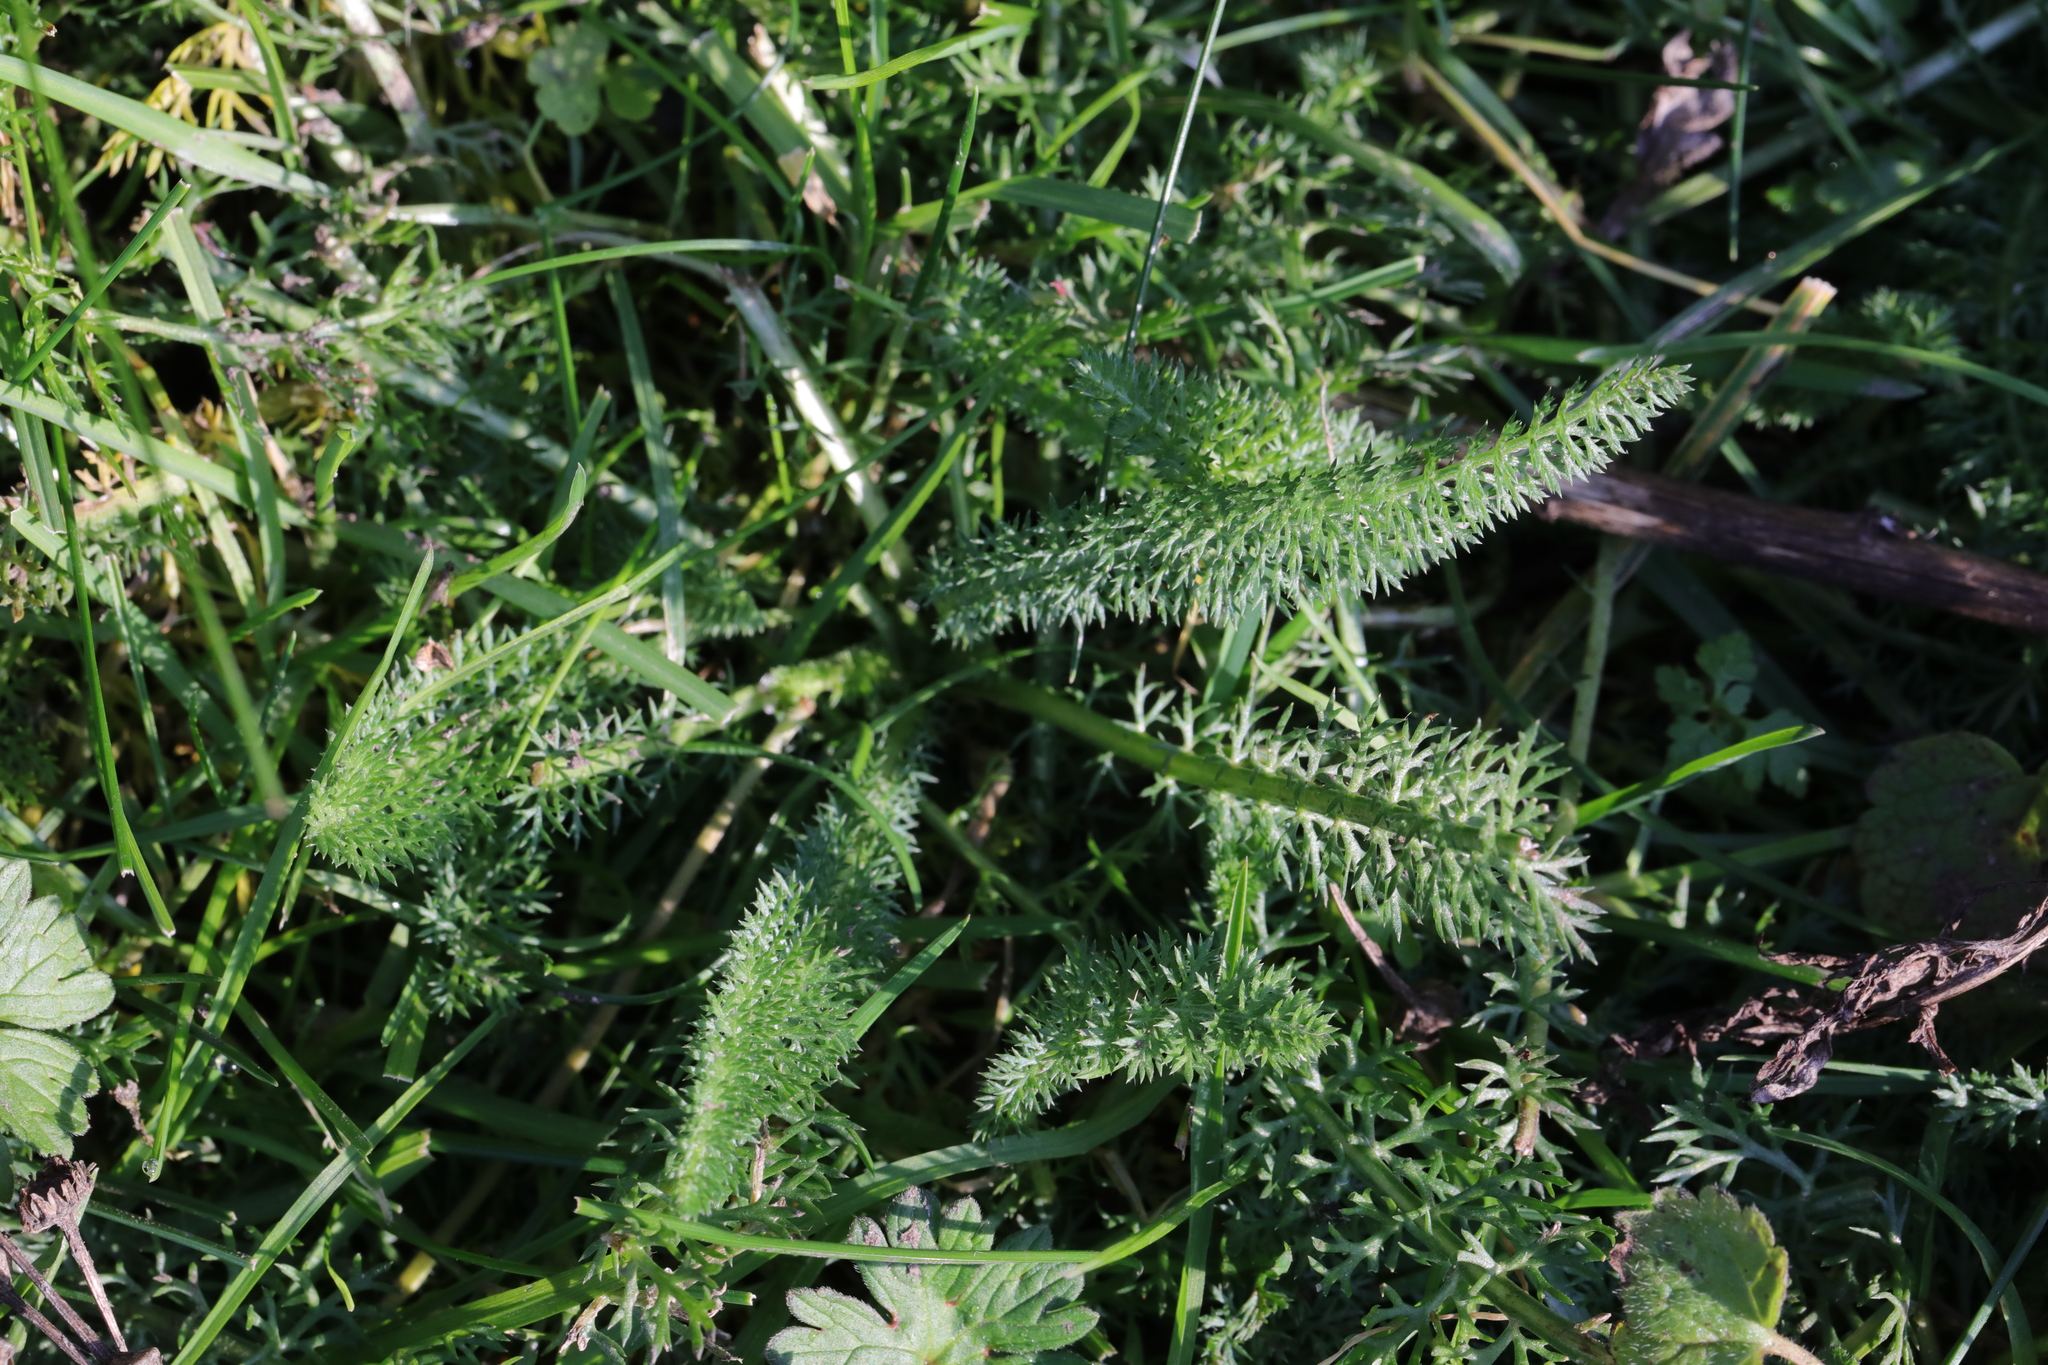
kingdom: Plantae
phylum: Tracheophyta
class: Magnoliopsida
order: Asterales
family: Asteraceae
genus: Achillea
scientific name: Achillea millefolium
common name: Yarrow
